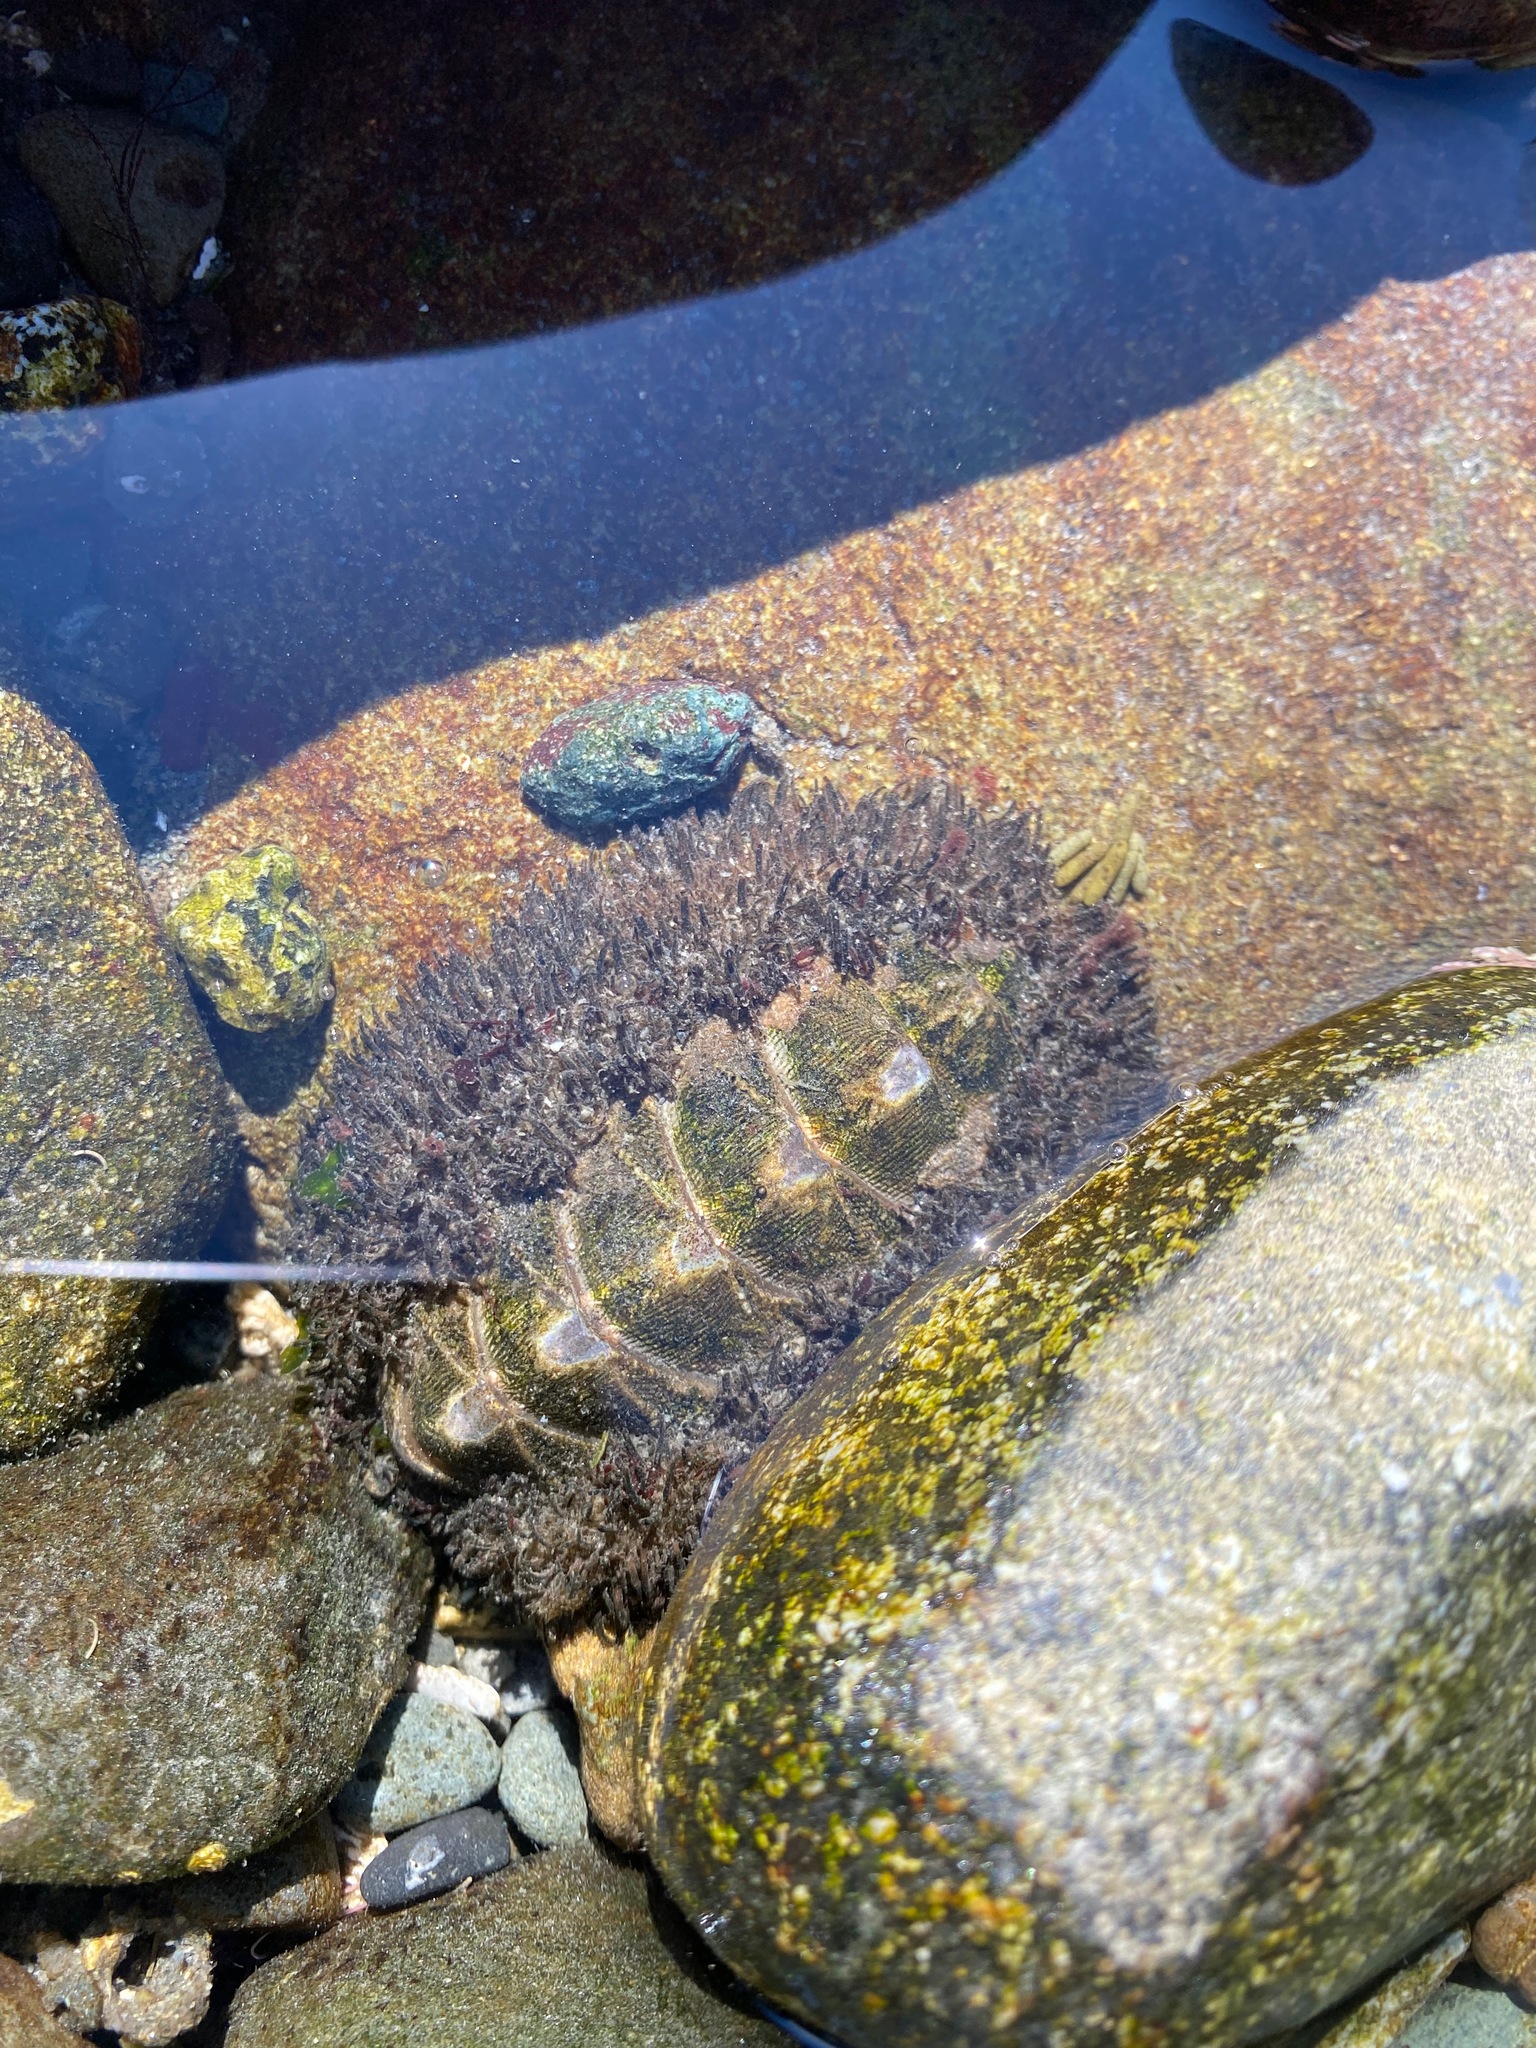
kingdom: Animalia
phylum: Mollusca
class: Polyplacophora
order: Chitonida
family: Mopaliidae
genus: Mopalia
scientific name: Mopalia muscosa
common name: Mossy chiton
